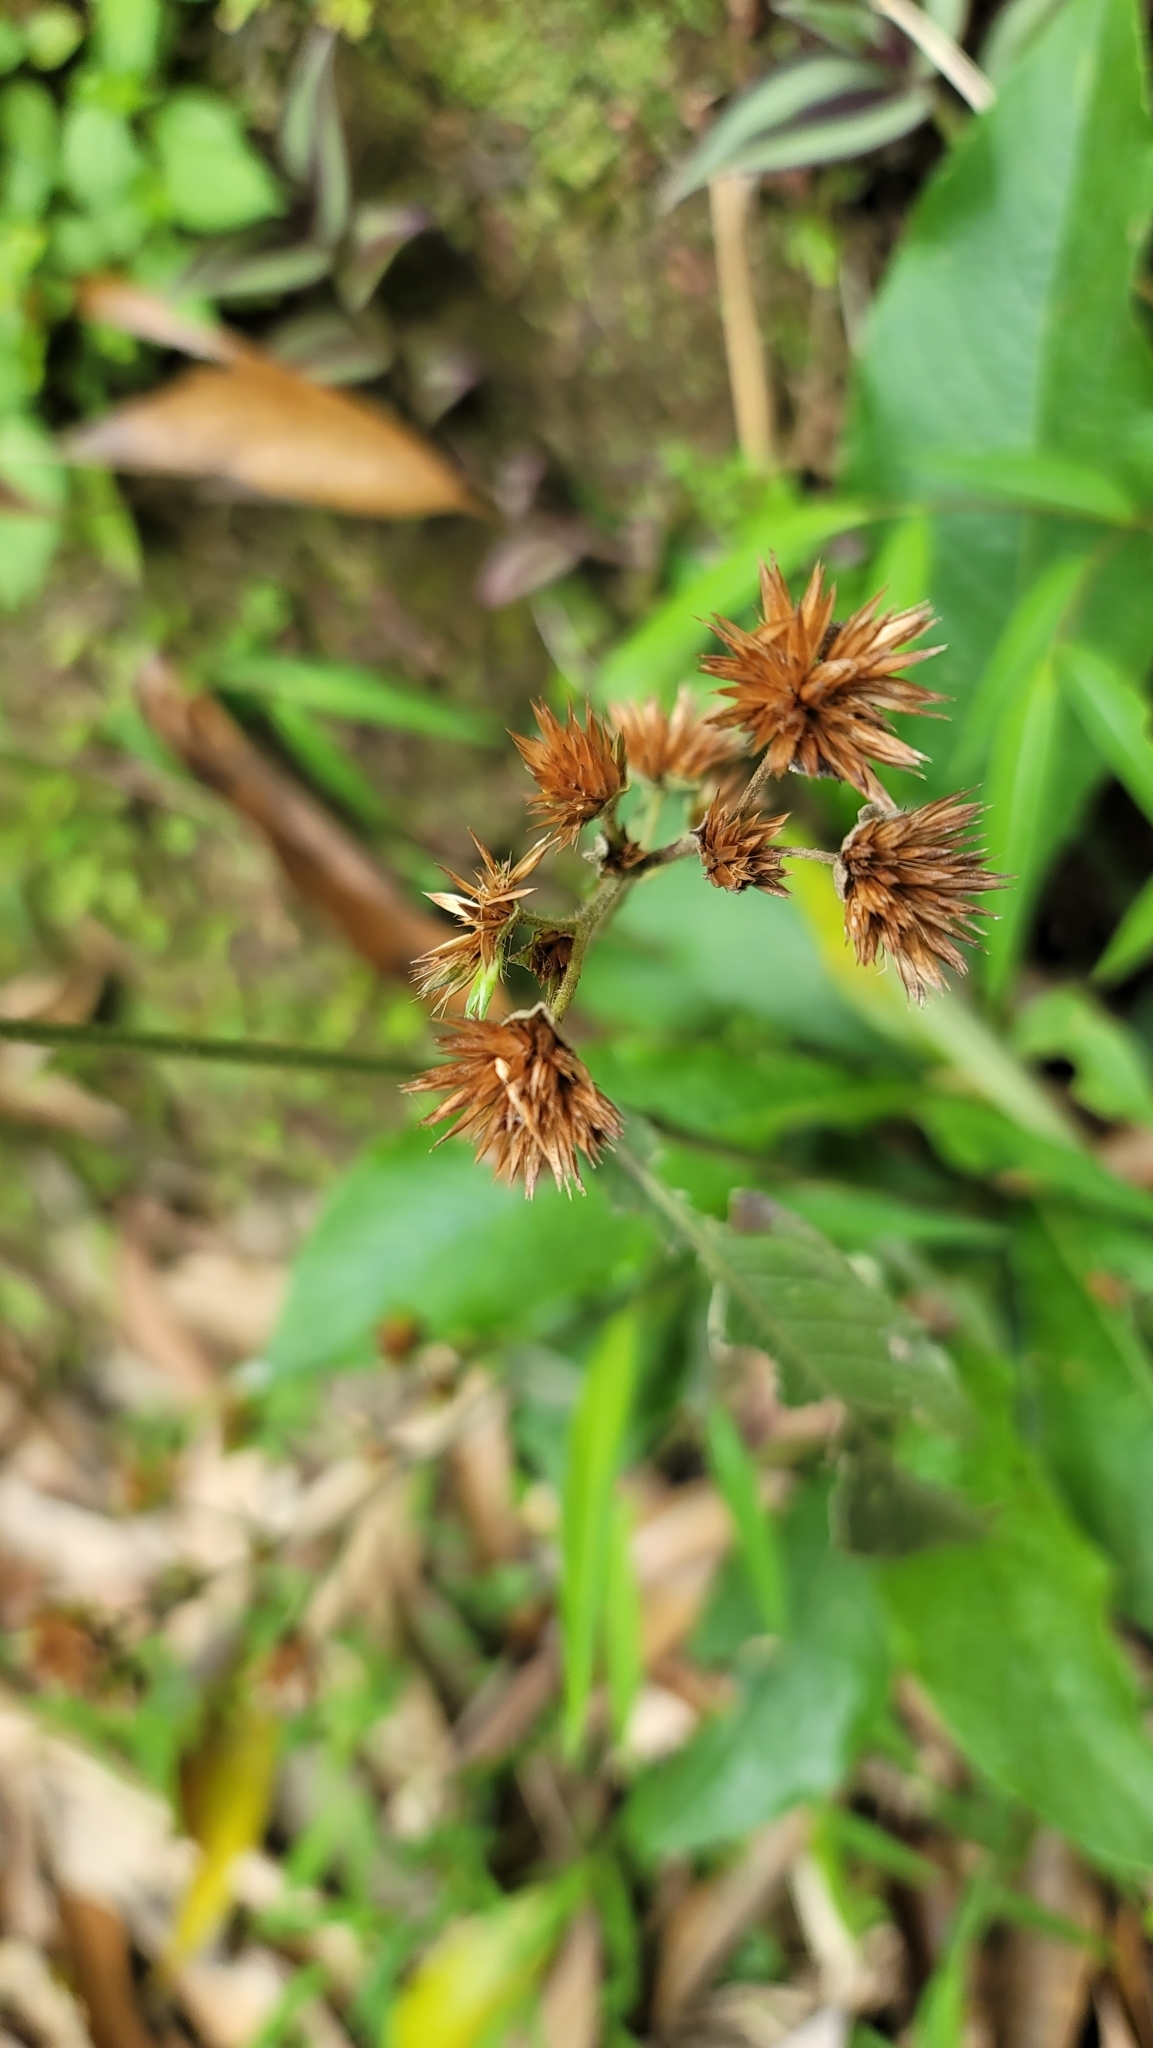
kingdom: Plantae
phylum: Tracheophyta
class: Magnoliopsida
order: Asterales
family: Asteraceae
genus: Elephantopus
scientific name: Elephantopus mollis
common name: Soft elephantsfoot
